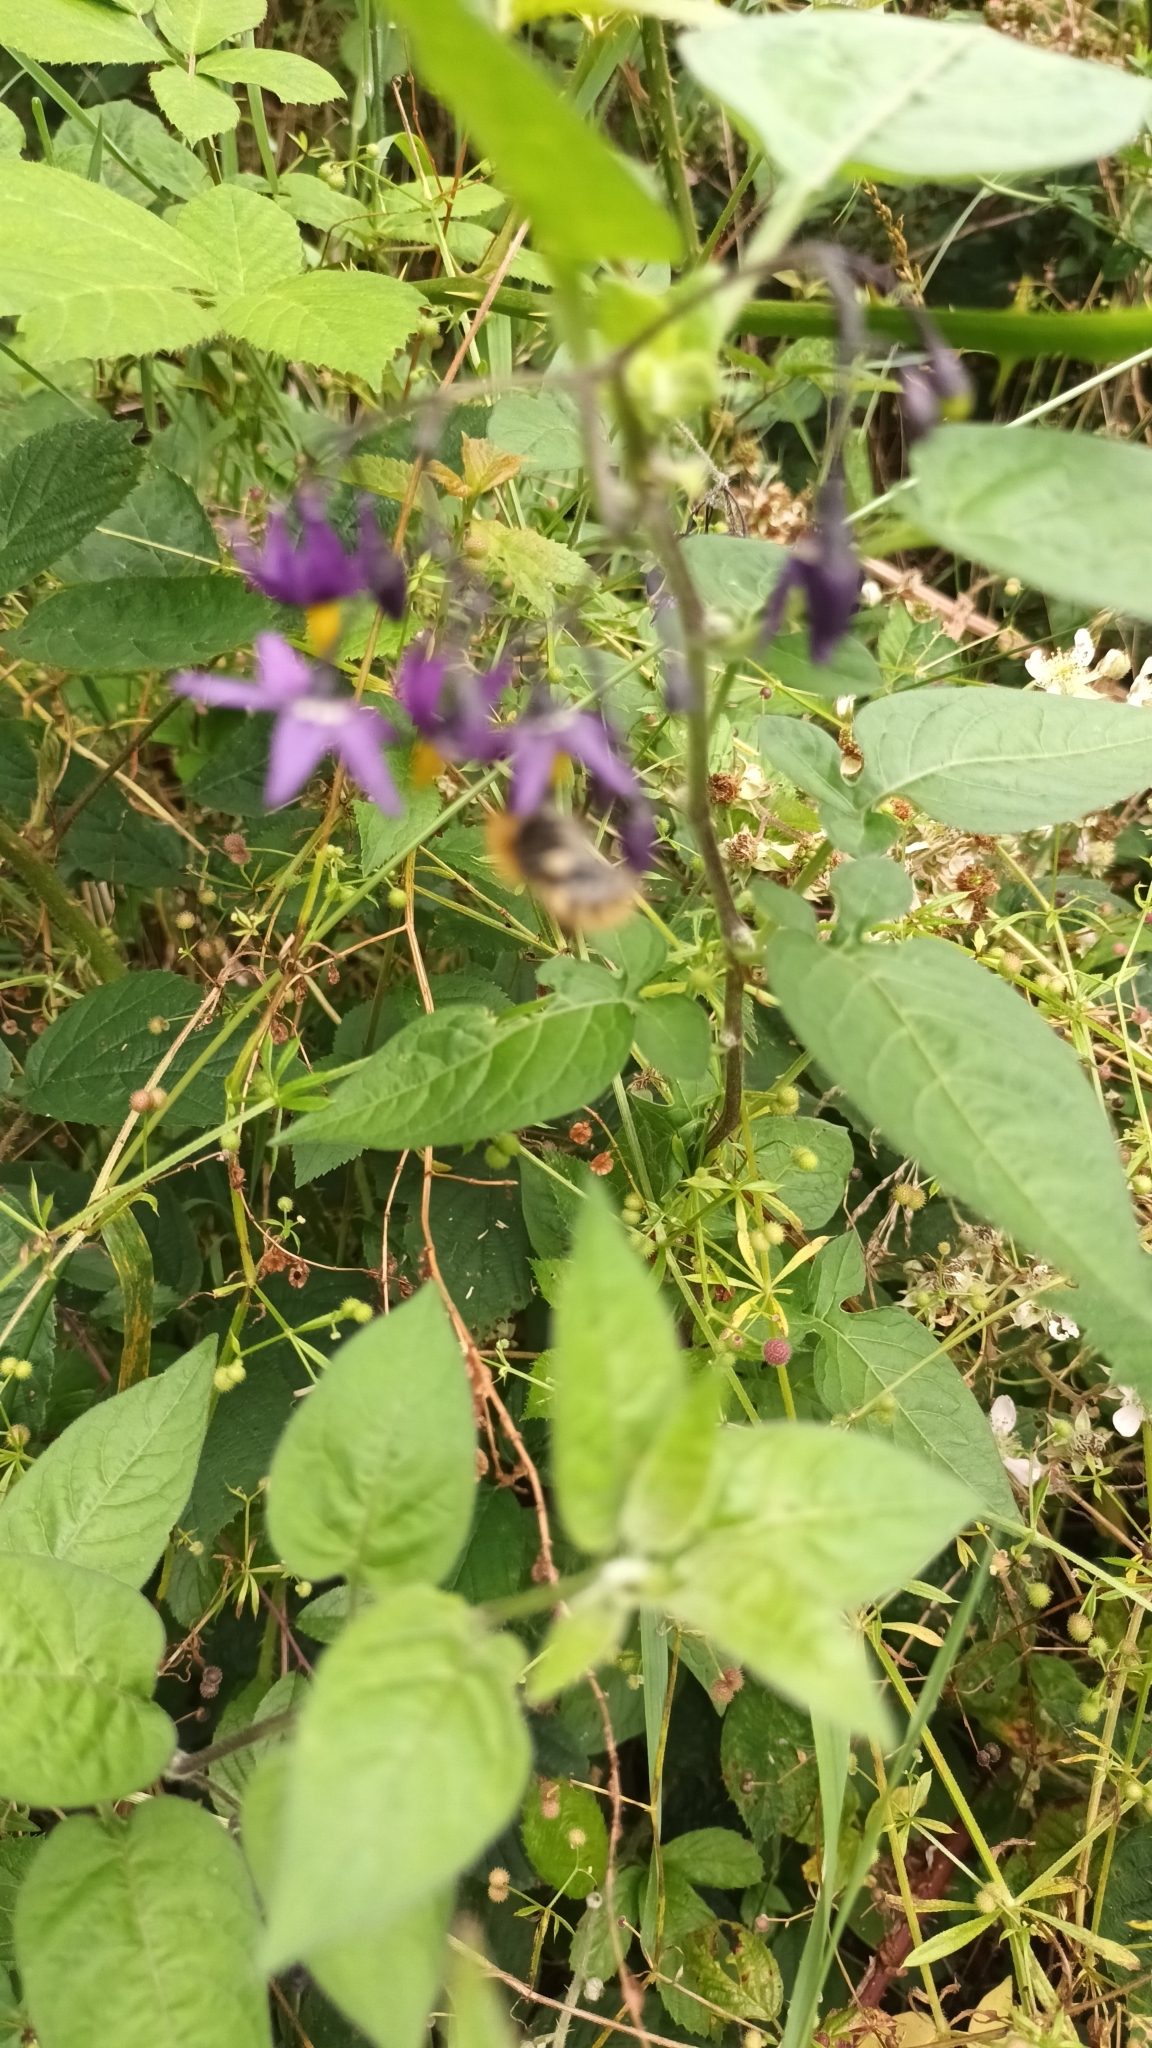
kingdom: Plantae
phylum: Tracheophyta
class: Magnoliopsida
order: Solanales
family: Solanaceae
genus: Solanum
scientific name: Solanum dulcamara
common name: Climbing nightshade
